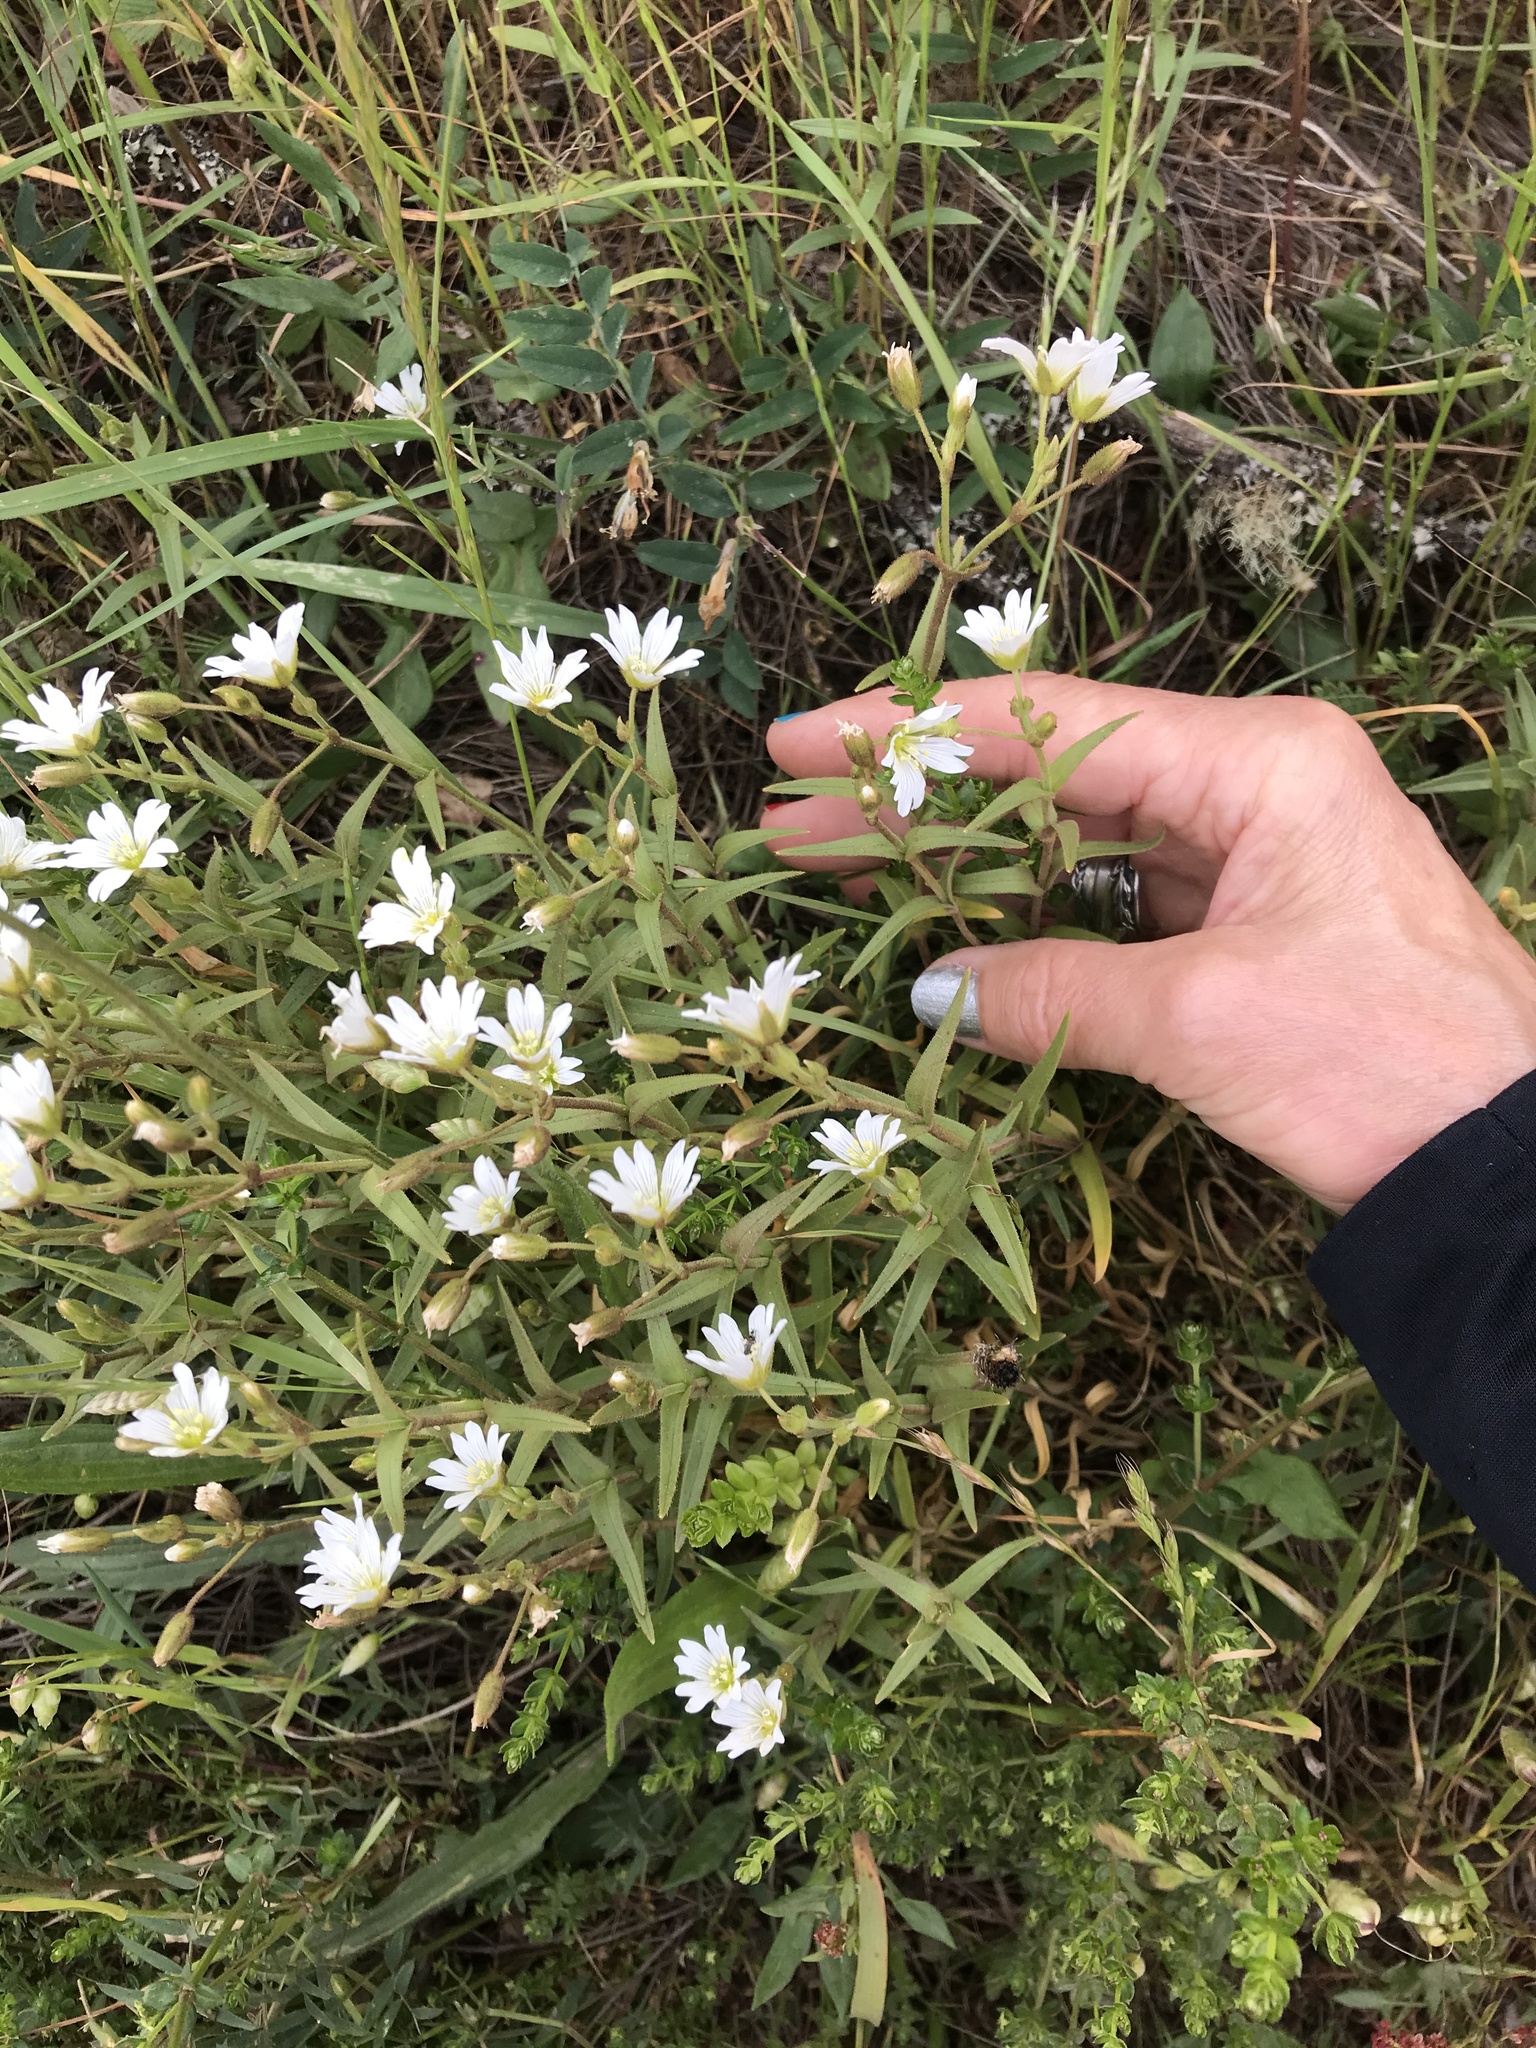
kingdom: Plantae
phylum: Tracheophyta
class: Magnoliopsida
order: Caryophyllales
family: Caryophyllaceae
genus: Cerastium
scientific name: Cerastium arvense
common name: Field mouse-ear
